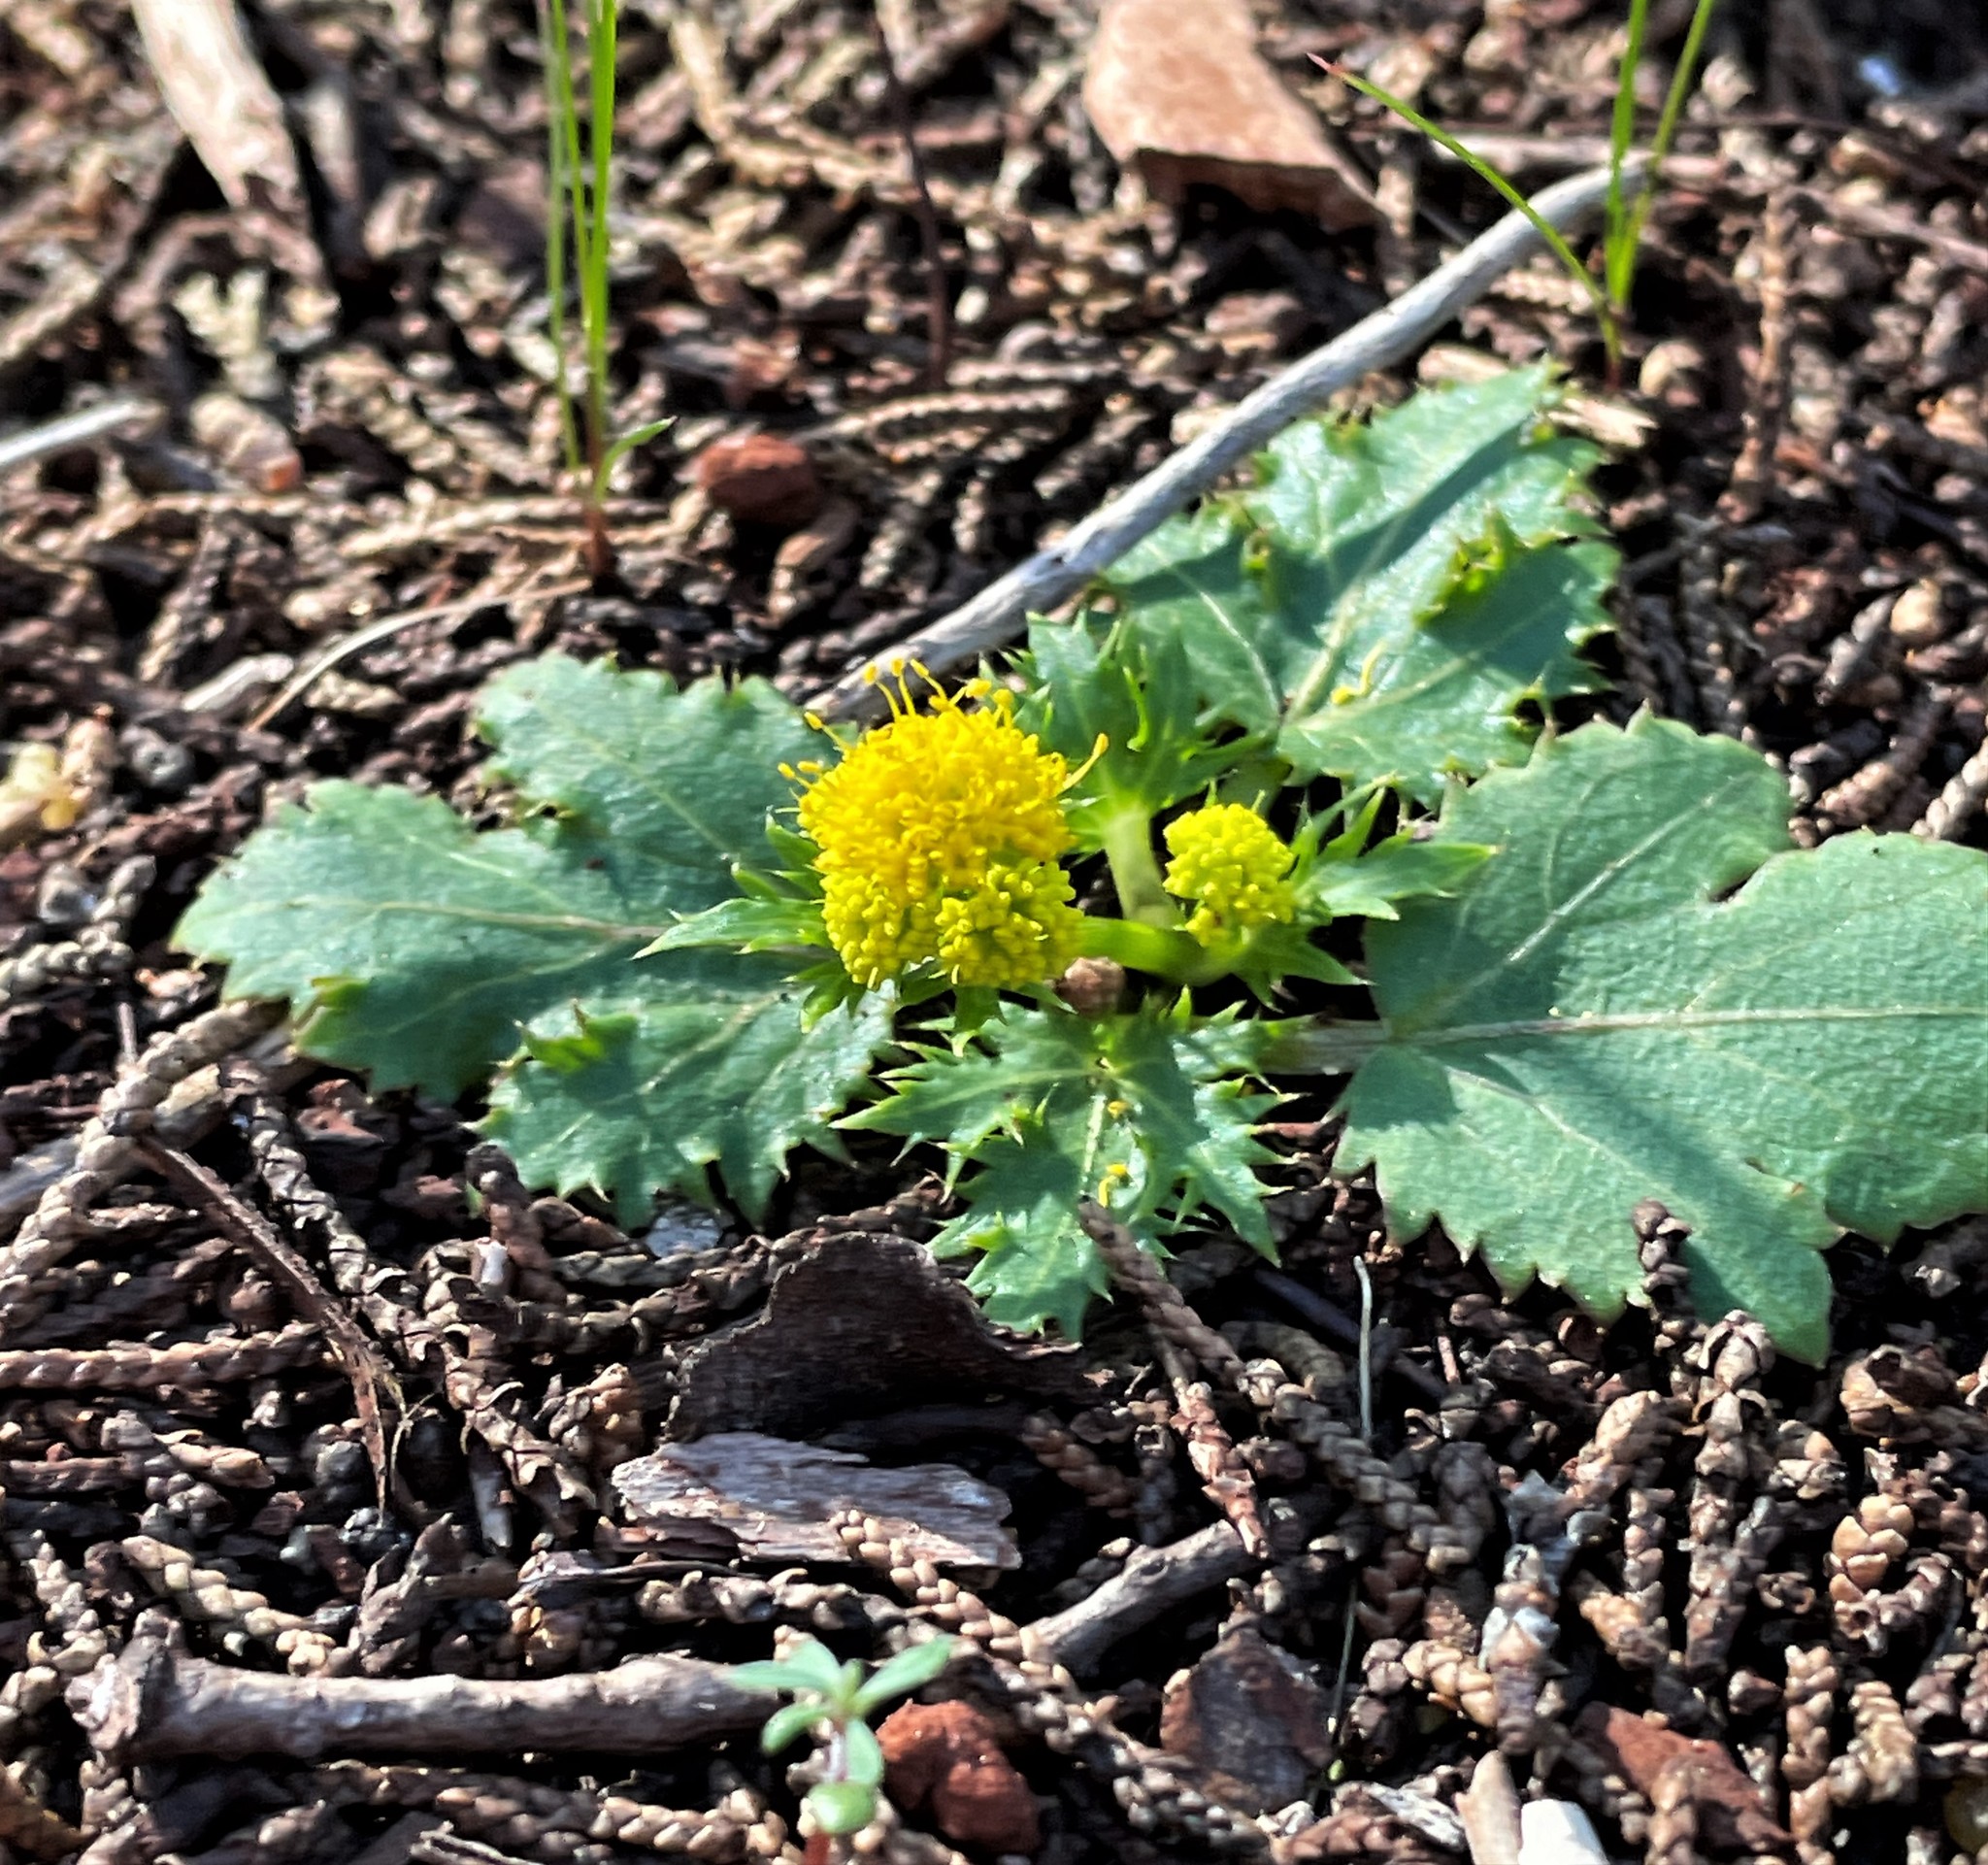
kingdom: Plantae
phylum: Tracheophyta
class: Magnoliopsida
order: Apiales
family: Apiaceae
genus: Sanicula
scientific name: Sanicula laciniata
